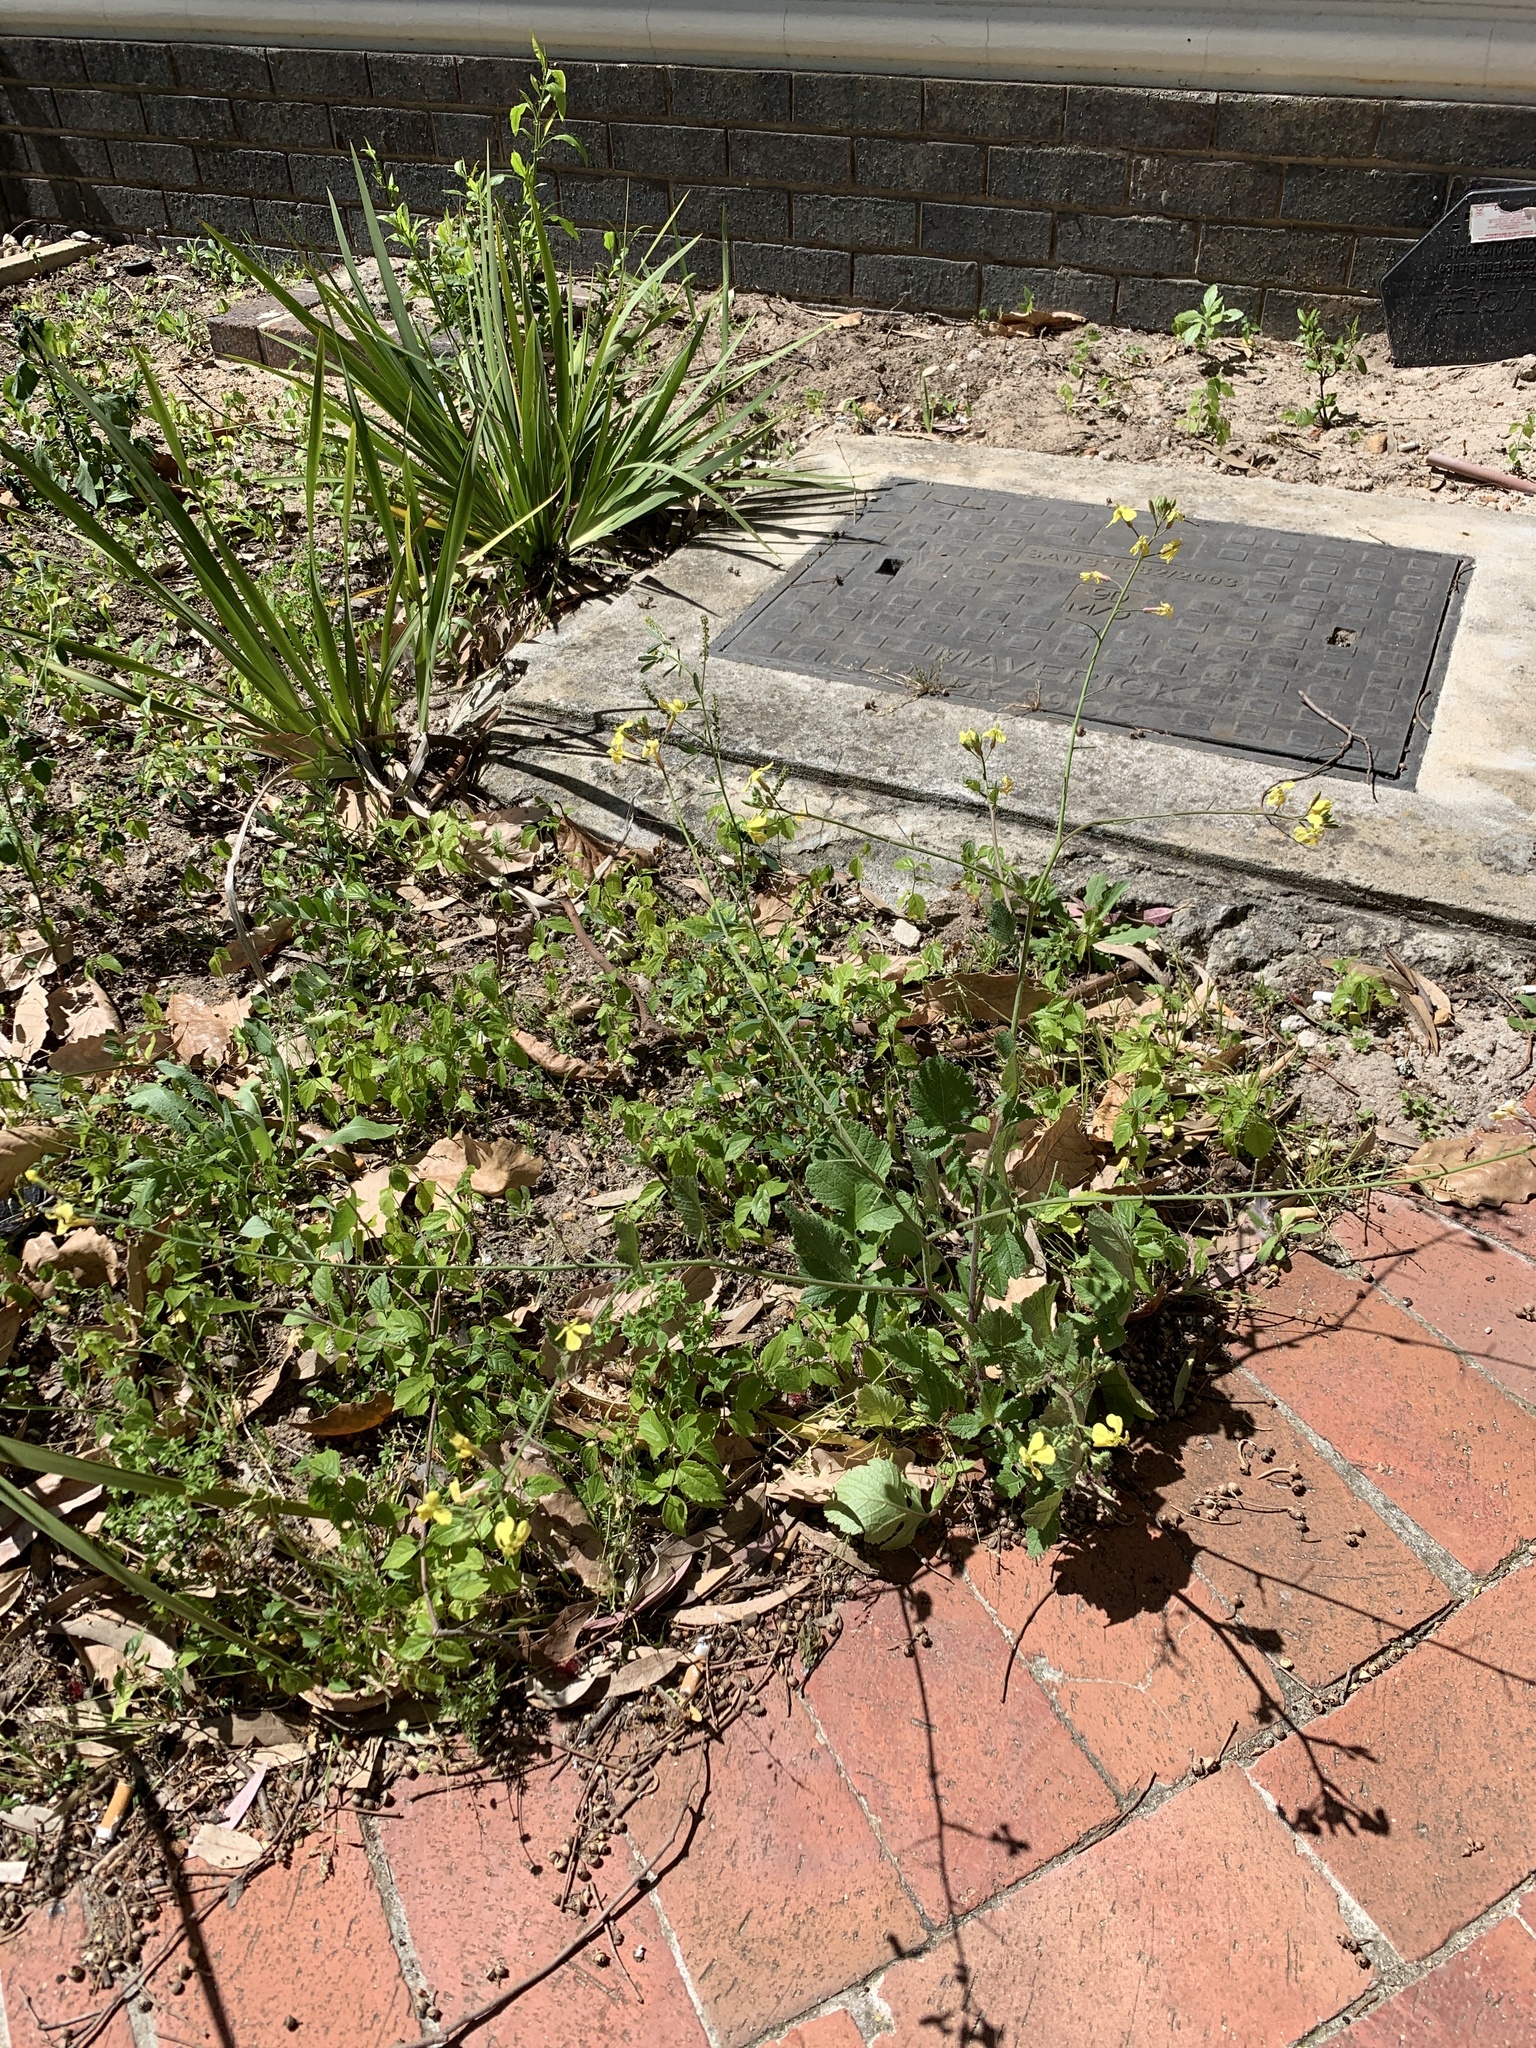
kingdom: Plantae
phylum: Tracheophyta
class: Magnoliopsida
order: Brassicales
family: Brassicaceae
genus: Raphanus
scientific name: Raphanus raphanistrum
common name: Wild radish
